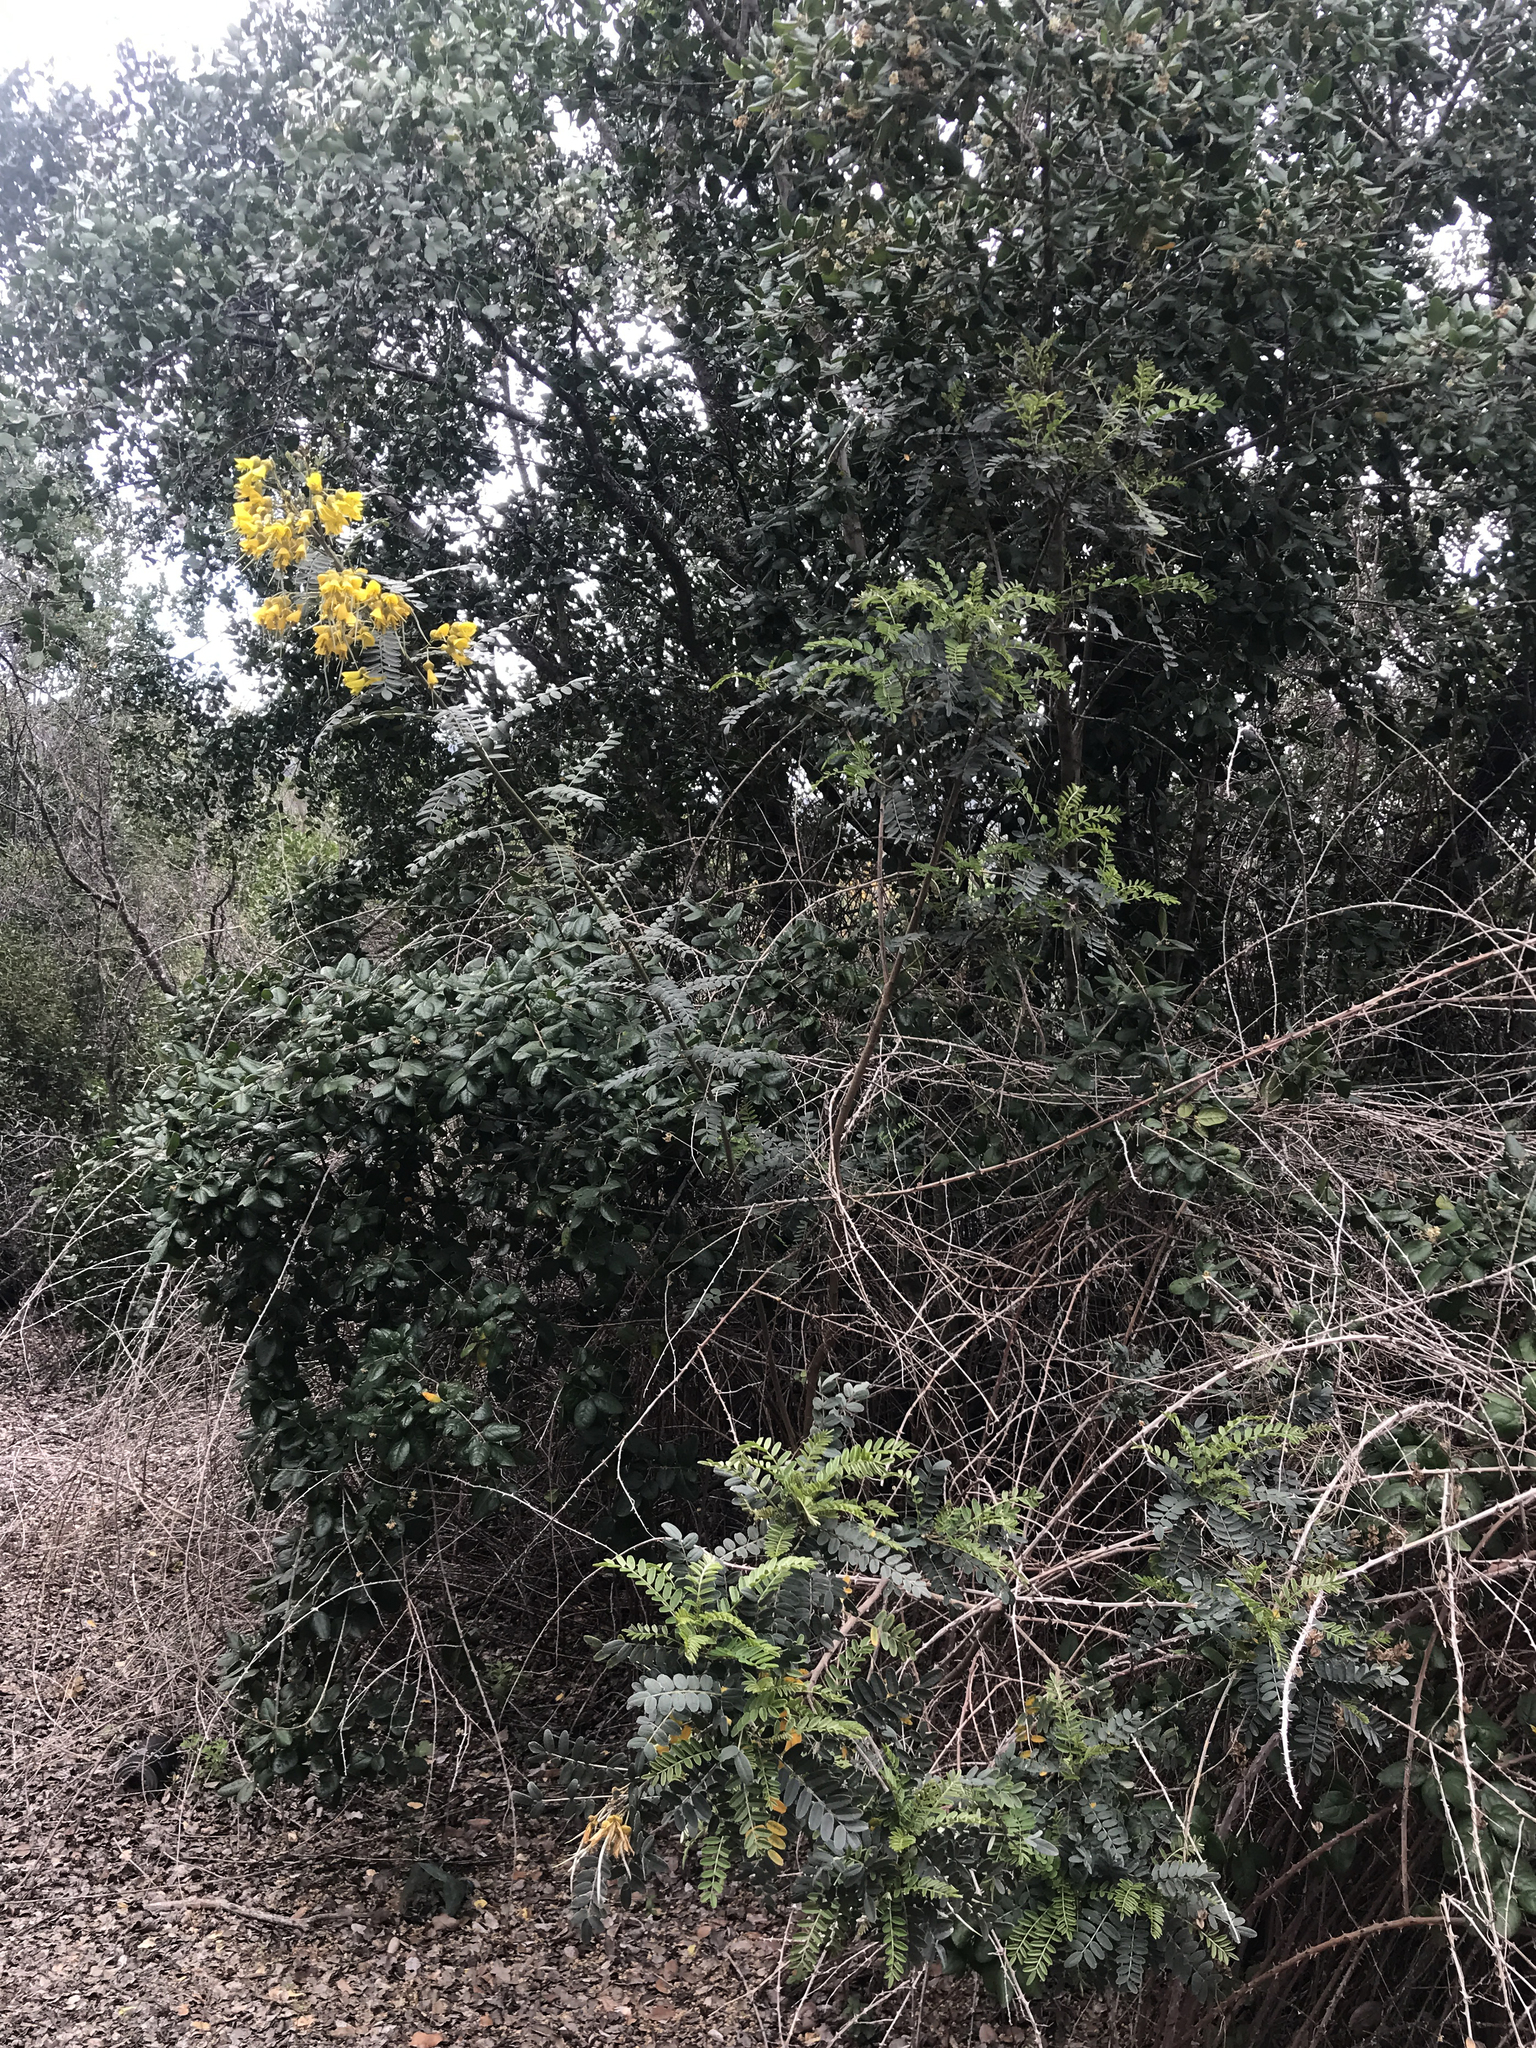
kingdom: Plantae
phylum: Tracheophyta
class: Magnoliopsida
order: Fabales
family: Fabaceae
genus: Sophora
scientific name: Sophora macrocarpa
